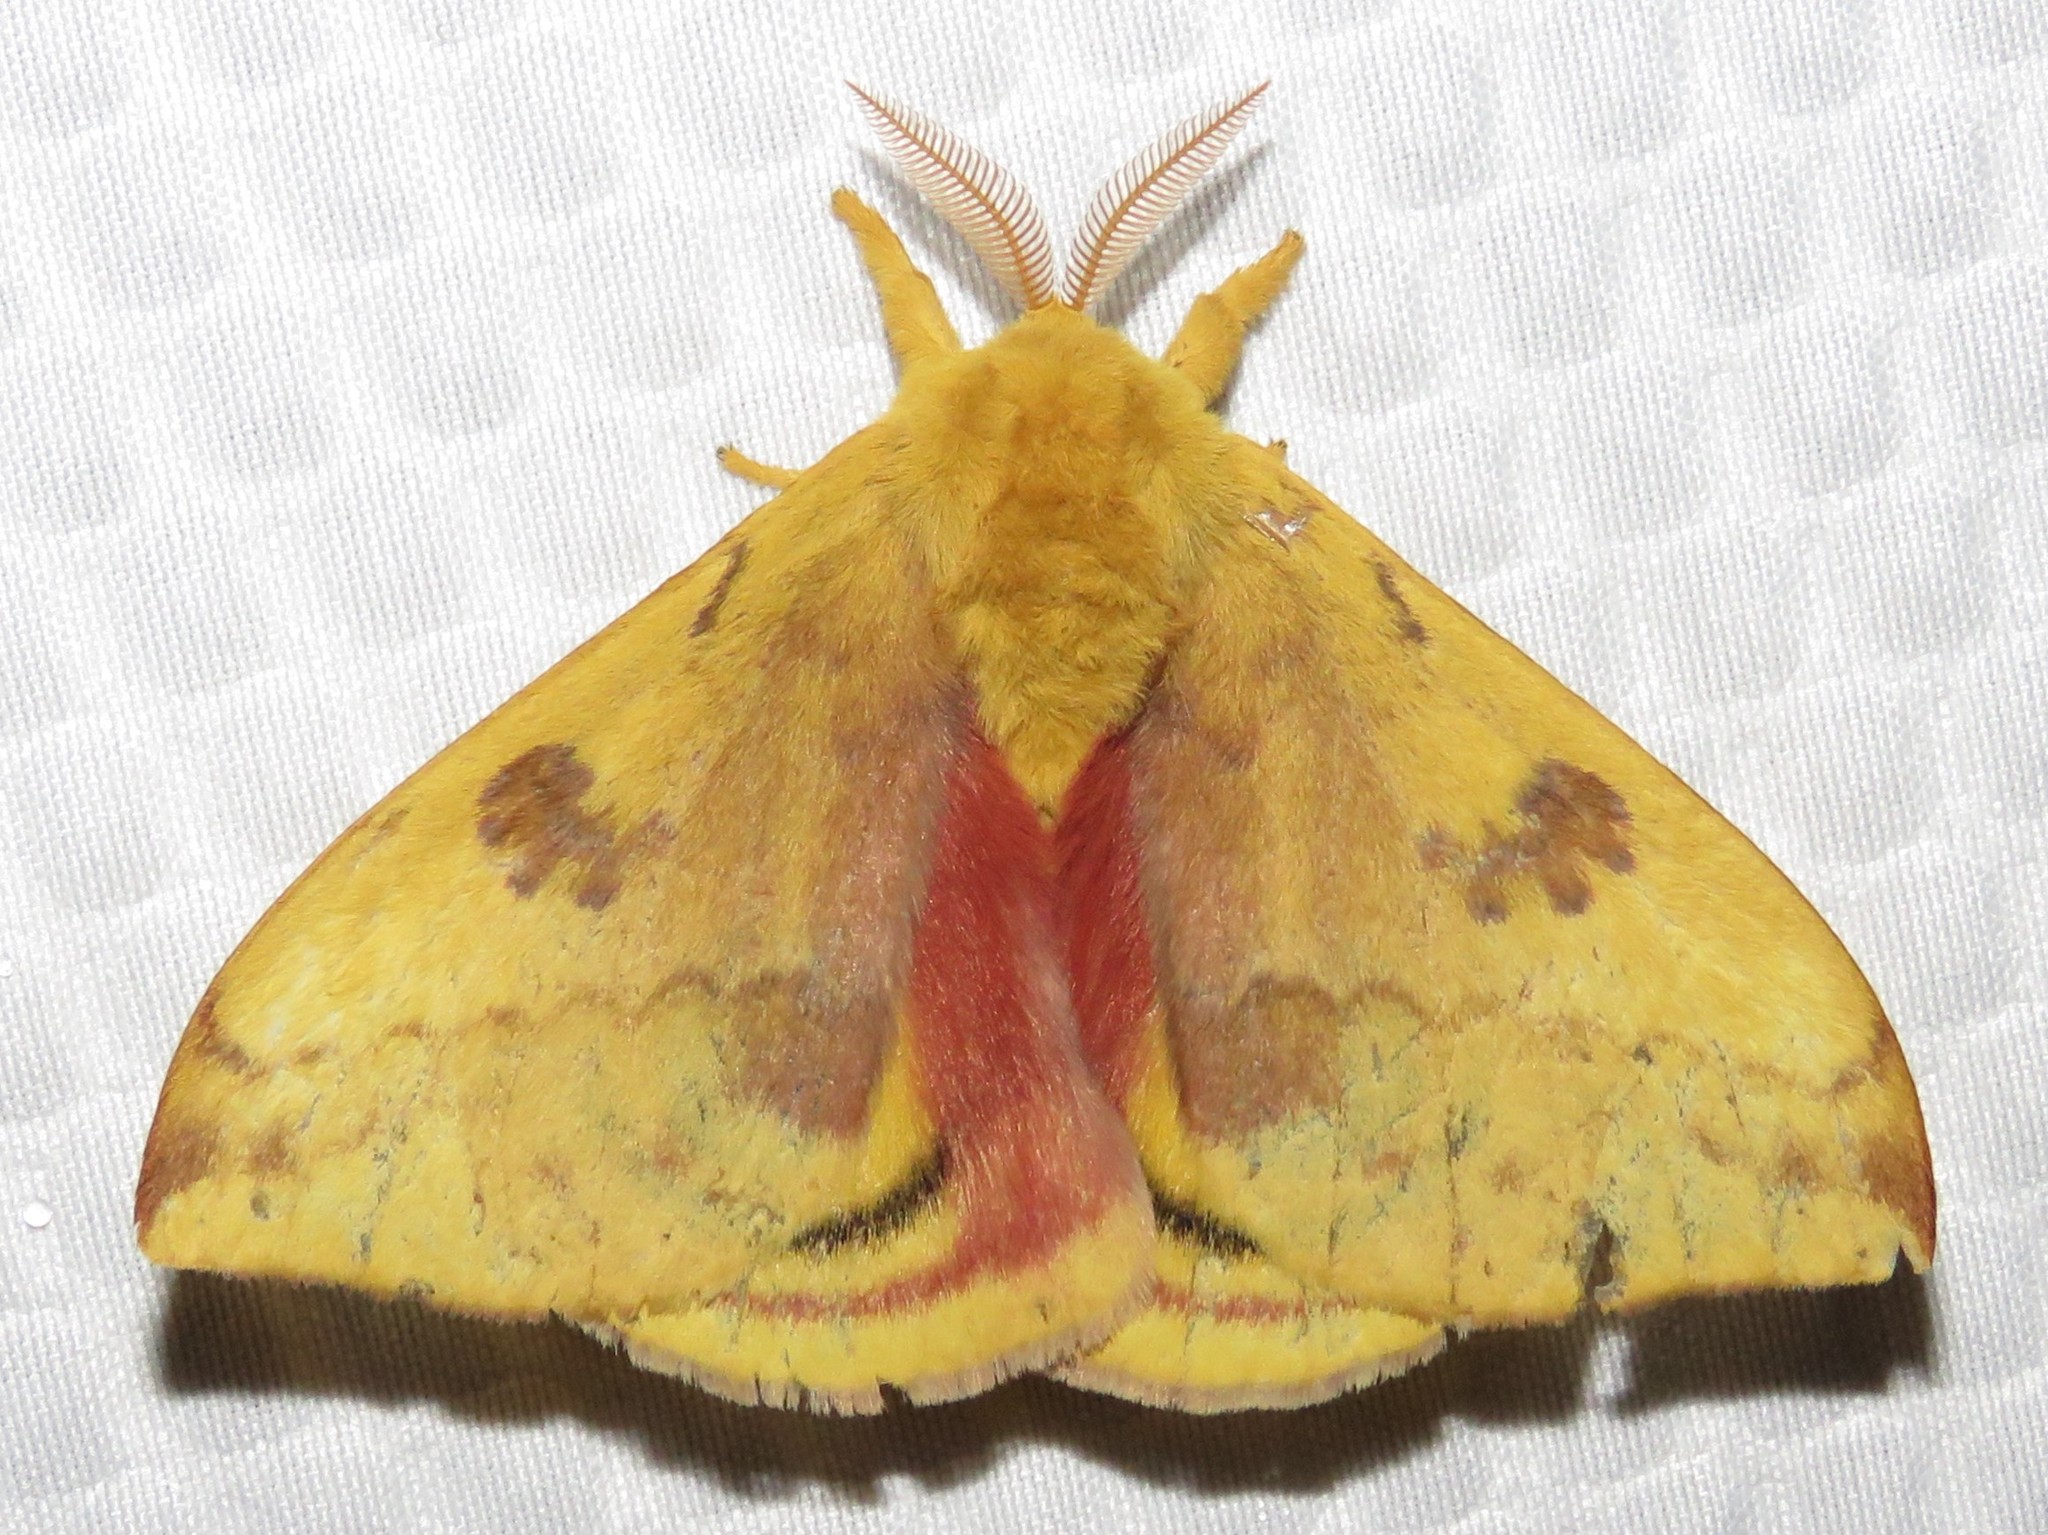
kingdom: Animalia
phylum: Arthropoda
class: Insecta
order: Lepidoptera
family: Saturniidae
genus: Automeris
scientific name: Automeris io
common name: Io moth
